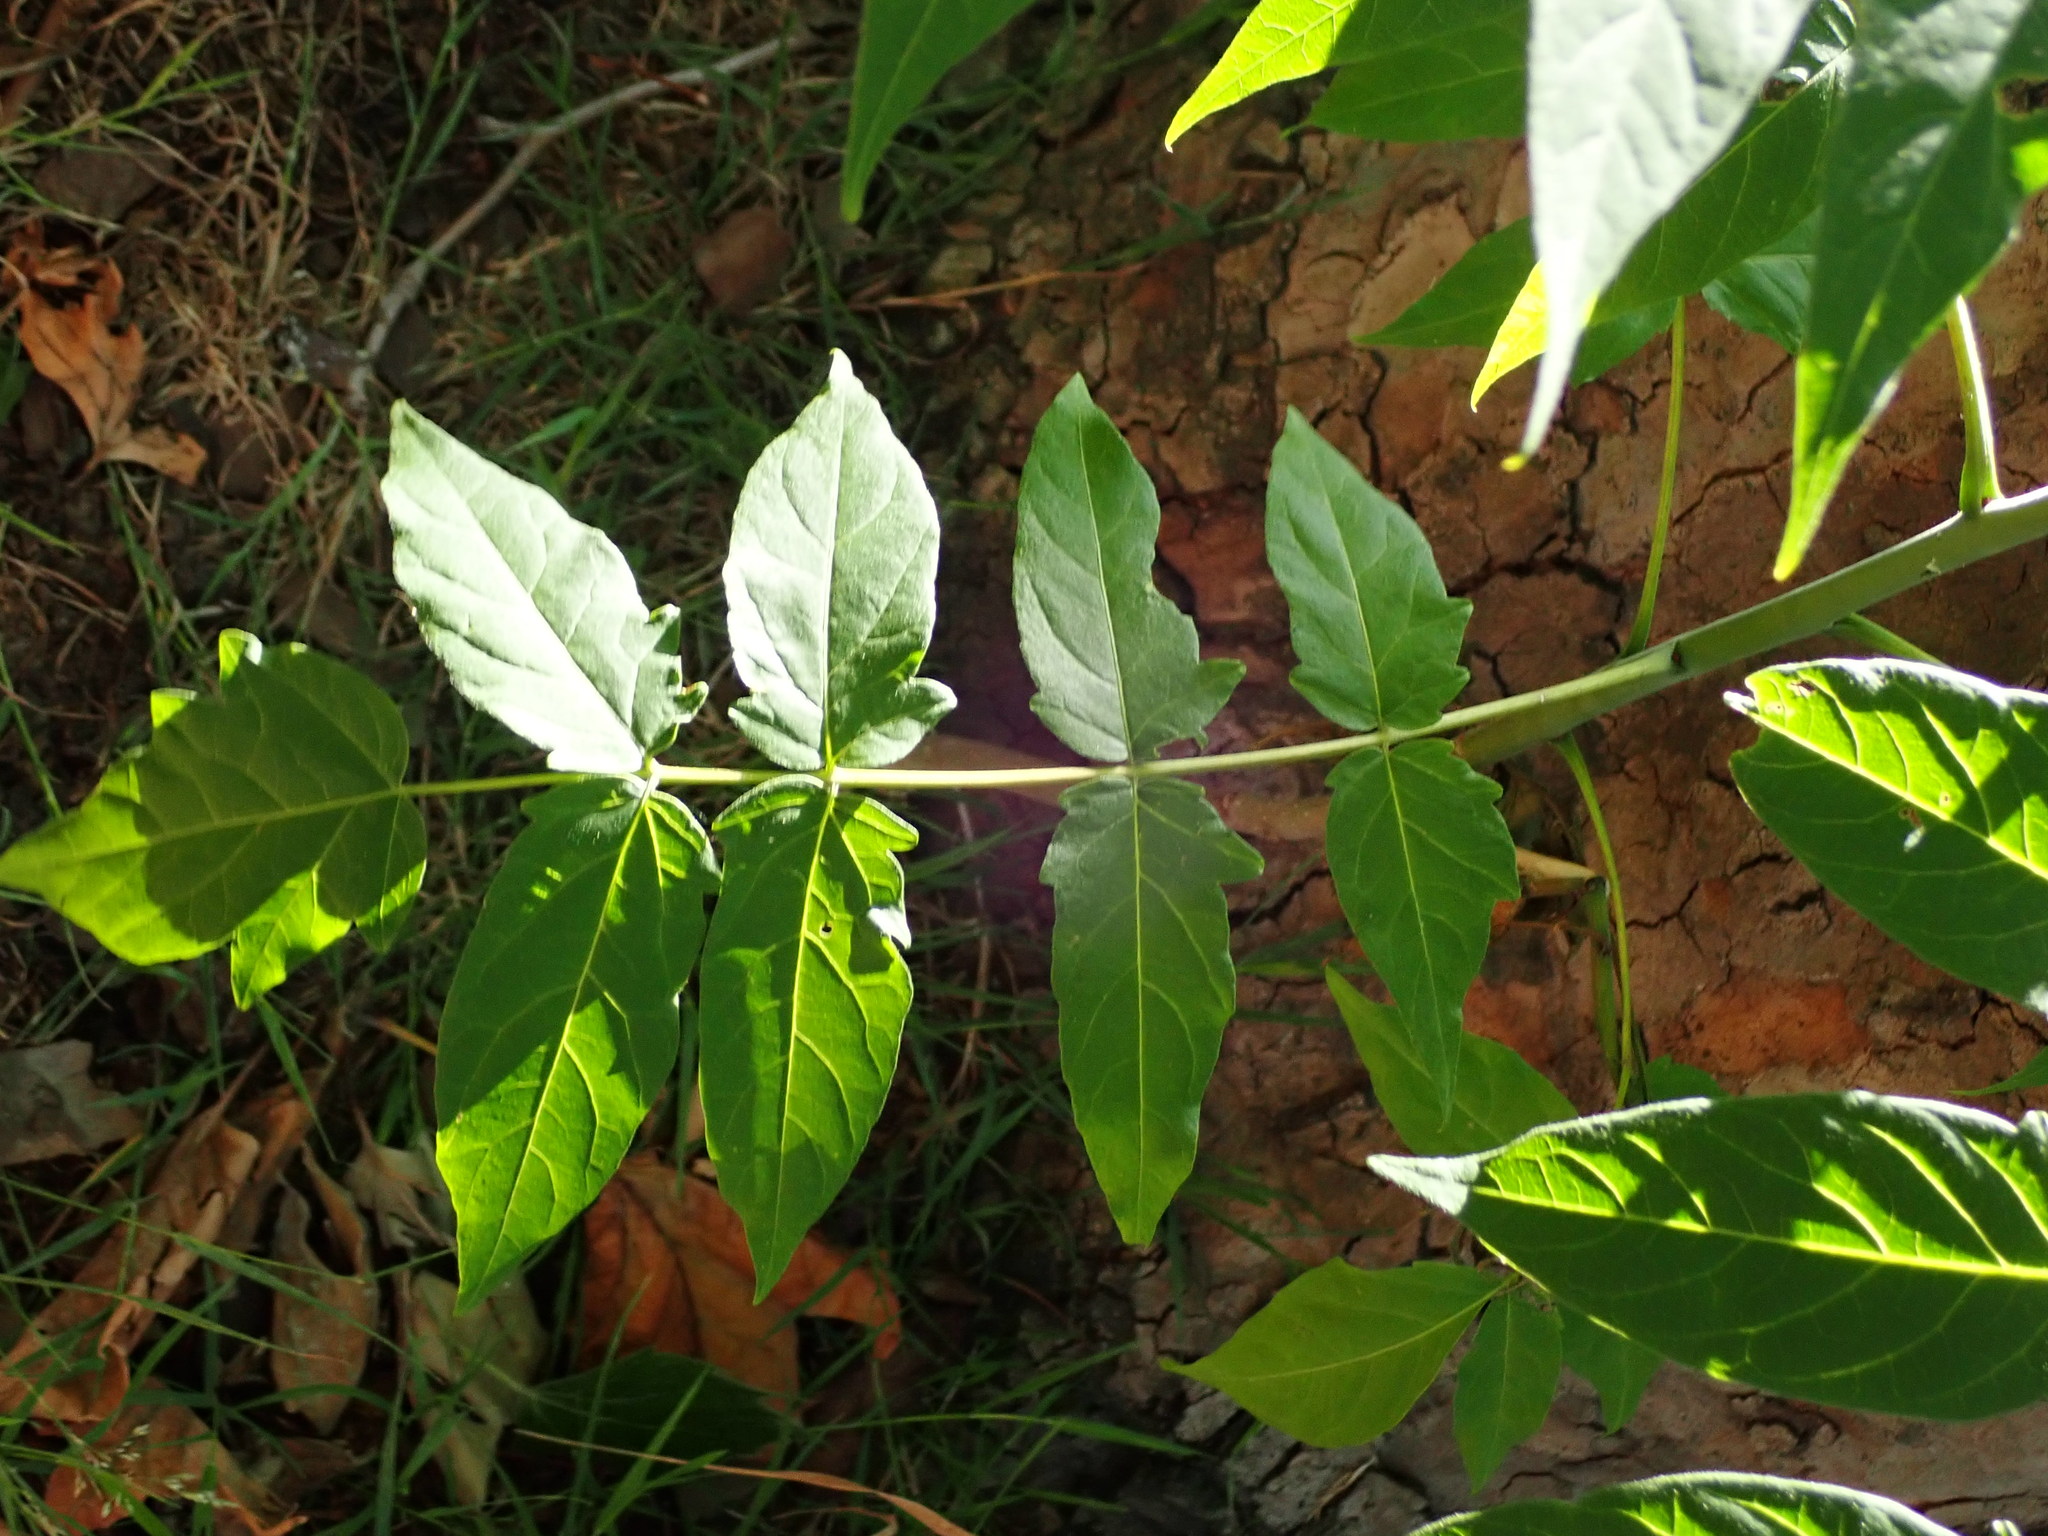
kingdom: Plantae
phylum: Tracheophyta
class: Magnoliopsida
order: Sapindales
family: Simaroubaceae
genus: Ailanthus
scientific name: Ailanthus altissima
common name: Tree-of-heaven
